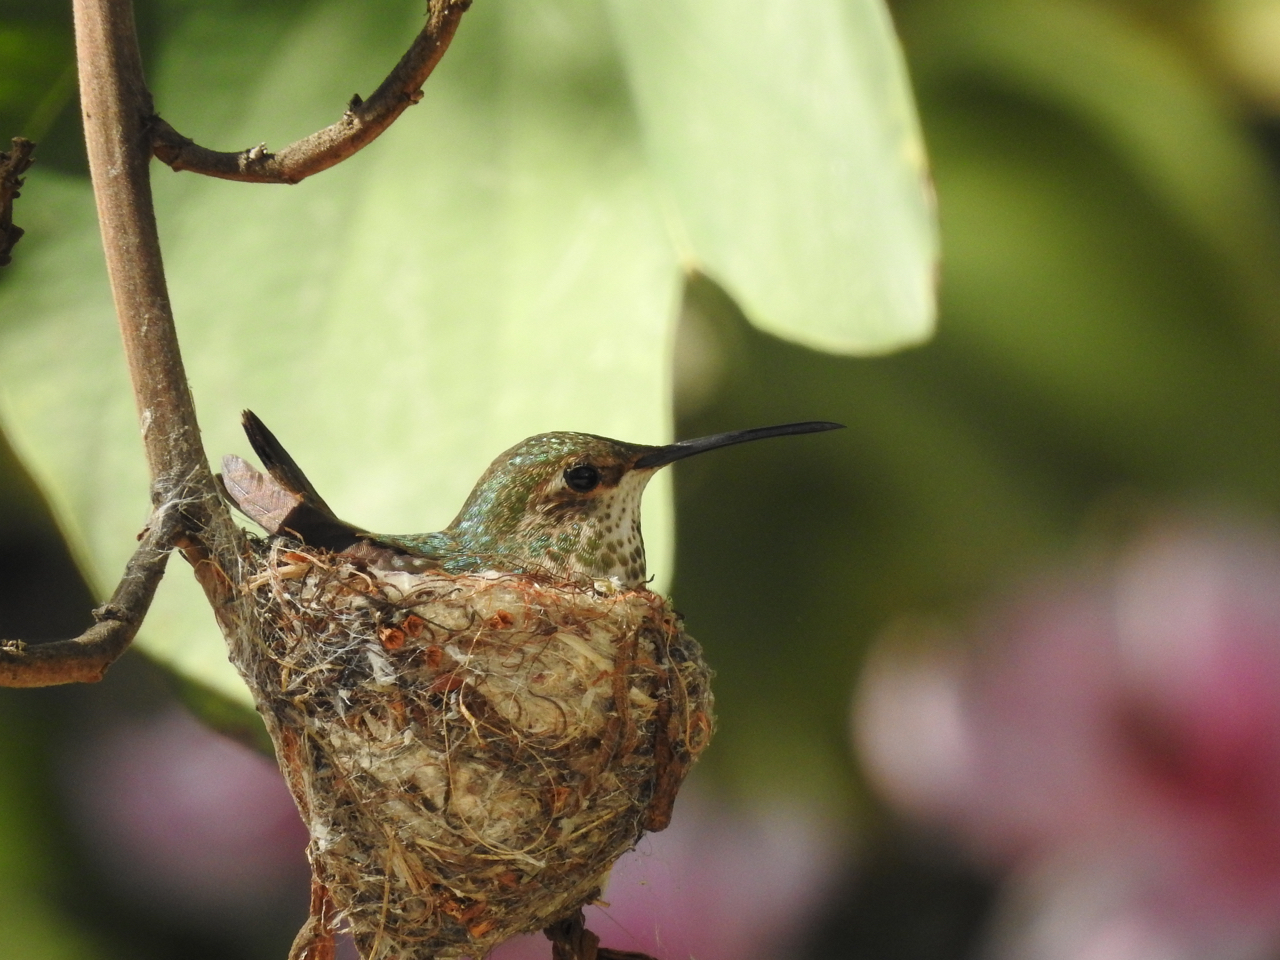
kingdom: Animalia
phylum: Chordata
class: Aves
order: Apodiformes
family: Trochilidae
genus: Selasphorus
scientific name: Selasphorus sasin
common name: Allen's hummingbird
